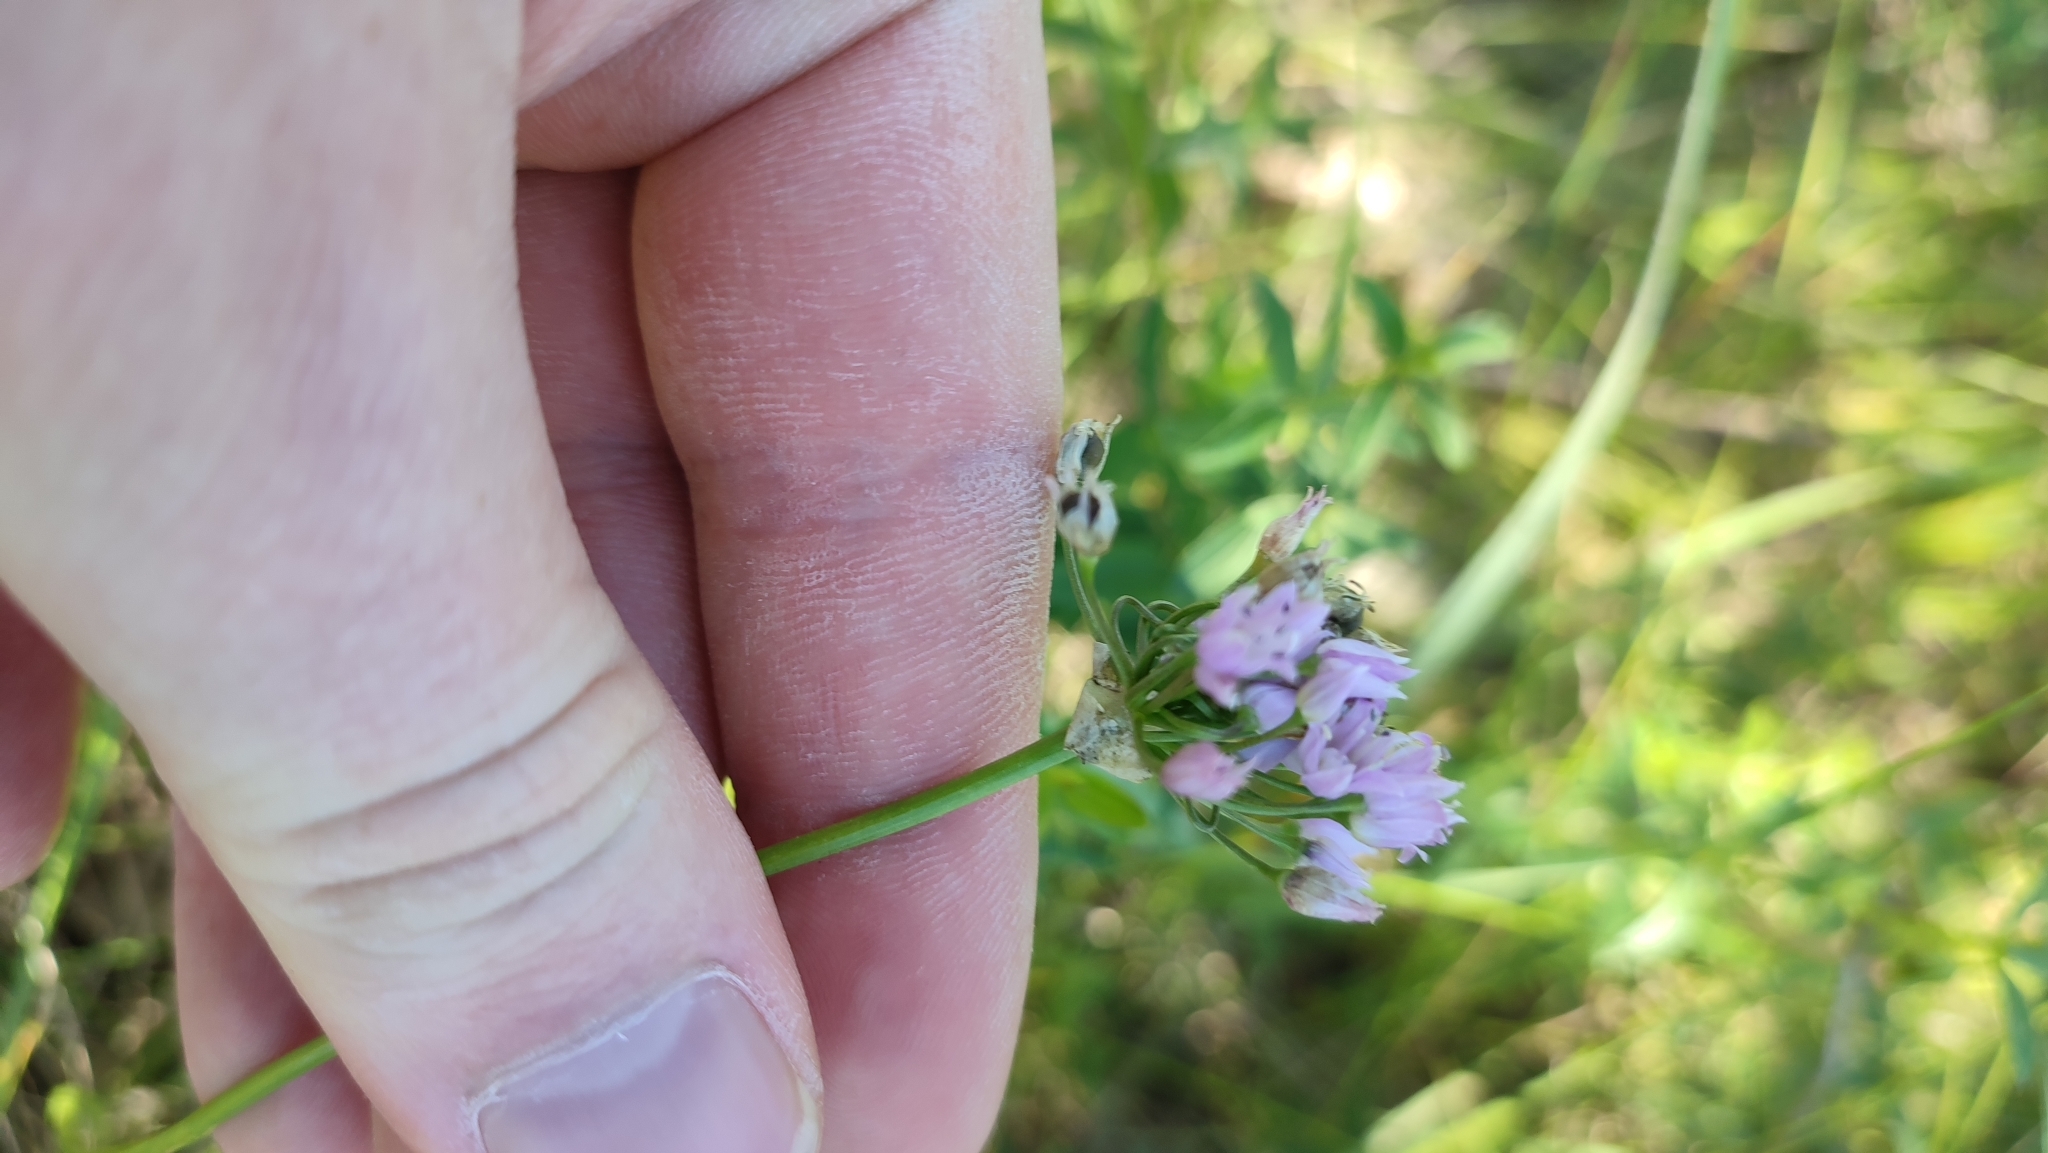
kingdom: Plantae
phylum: Tracheophyta
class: Liliopsida
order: Asparagales
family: Amaryllidaceae
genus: Allium
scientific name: Allium angulosum
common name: Mouse garlic
